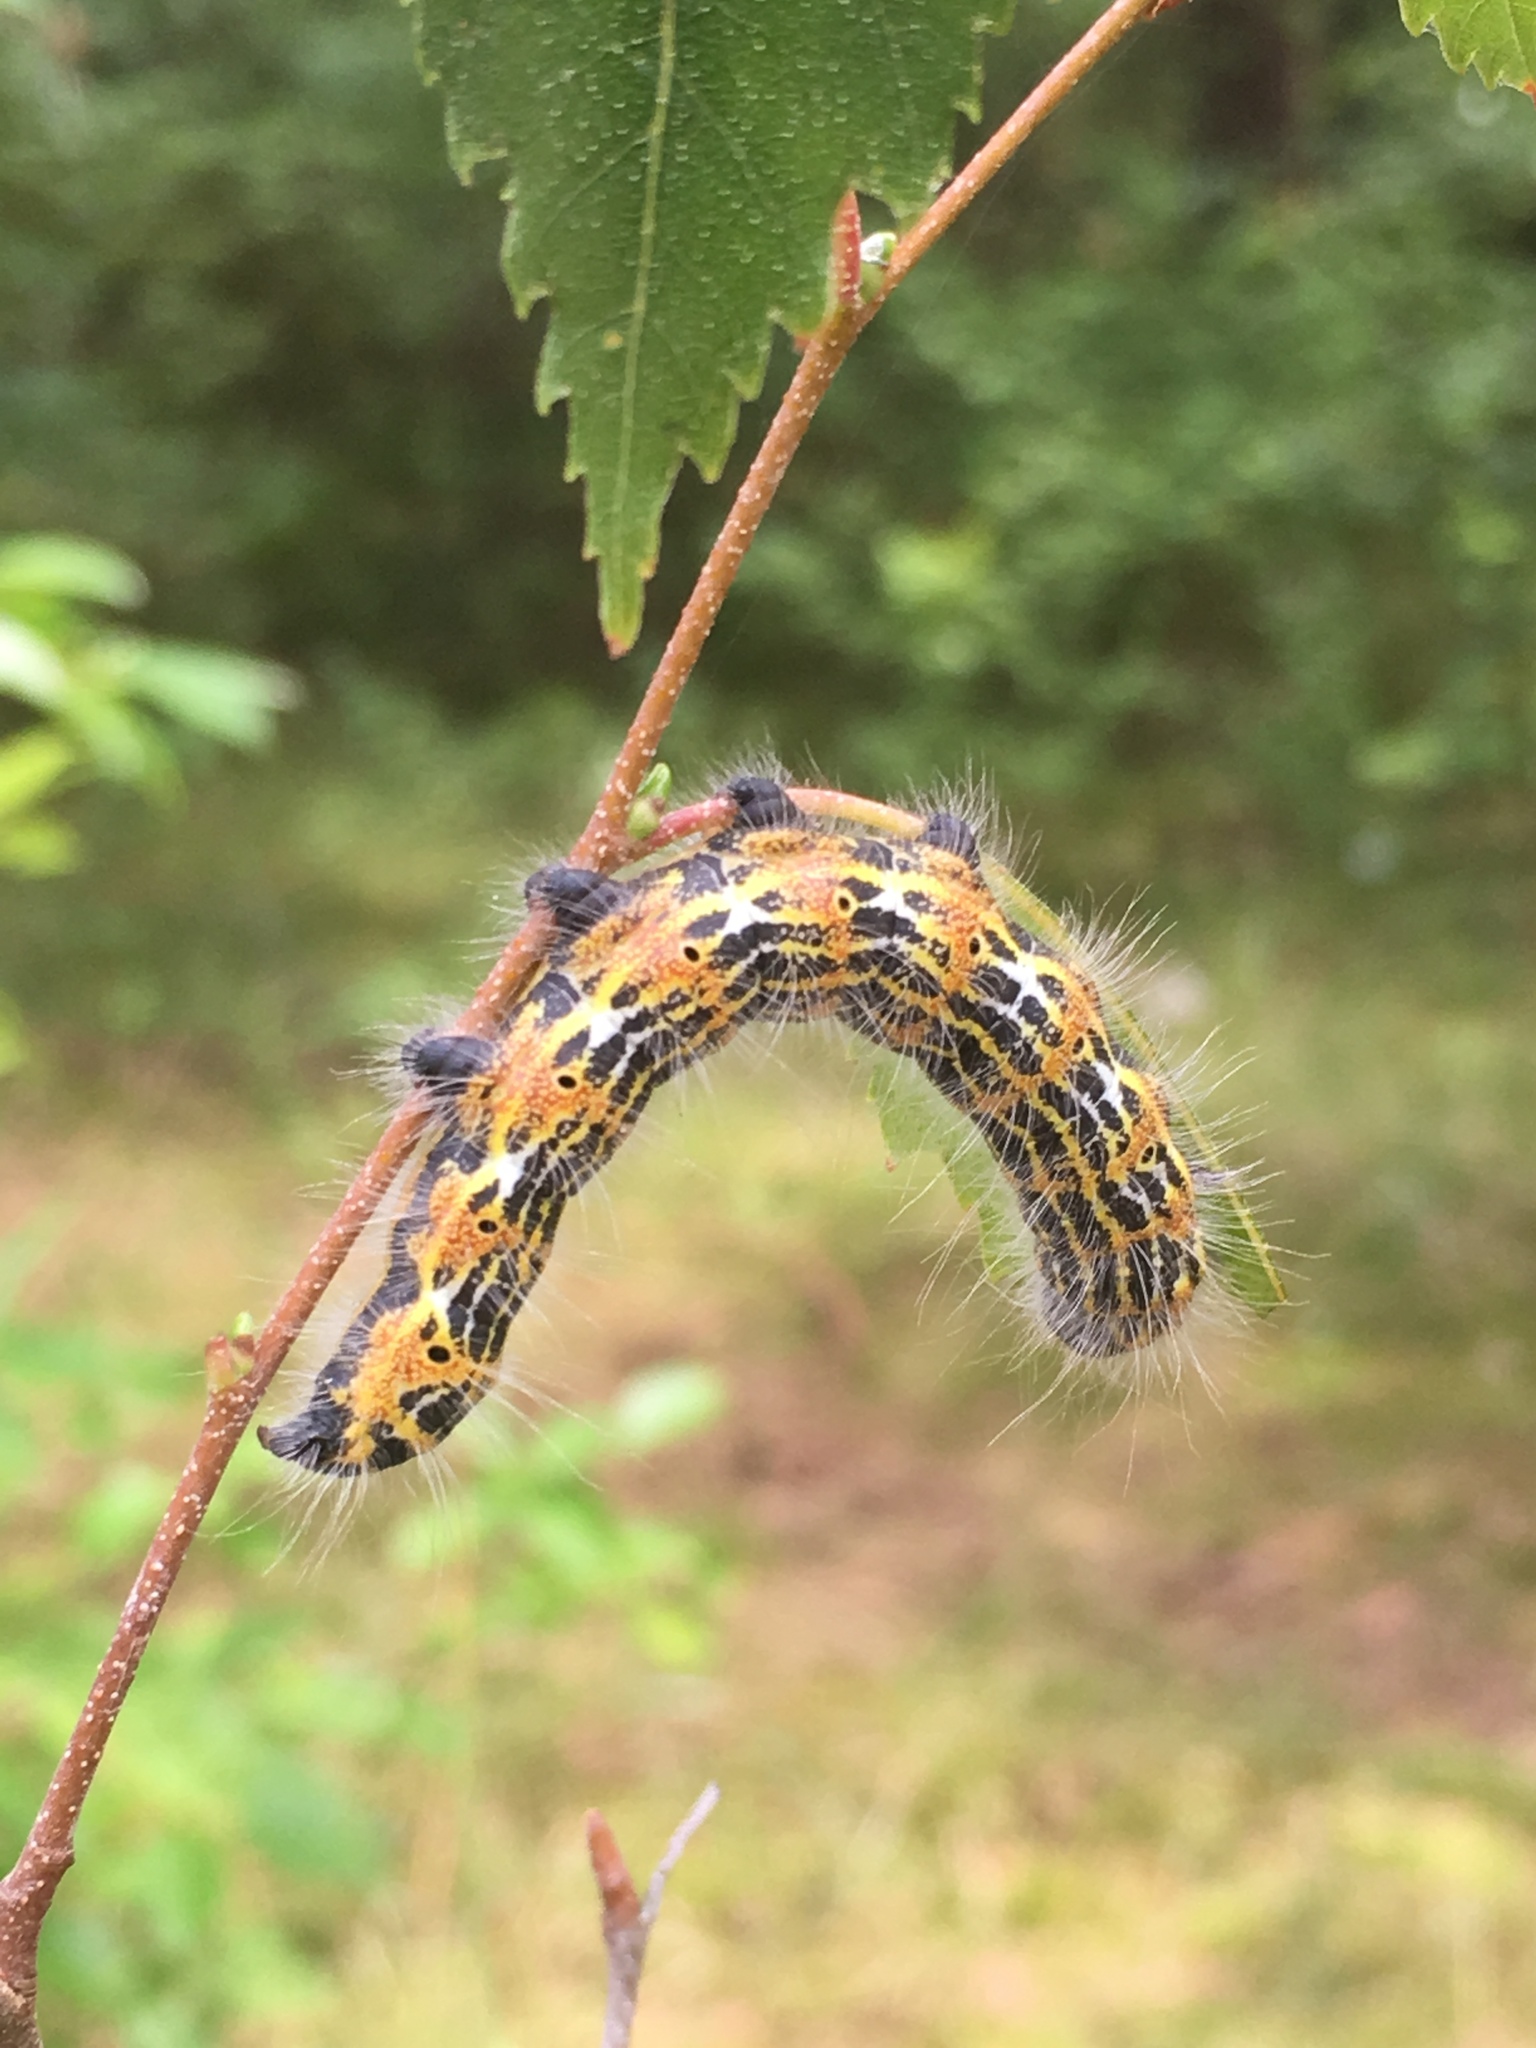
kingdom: Animalia
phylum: Arthropoda
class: Insecta
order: Lepidoptera
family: Notodontidae
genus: Phalera
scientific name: Phalera bucephala
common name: Buff-tip
